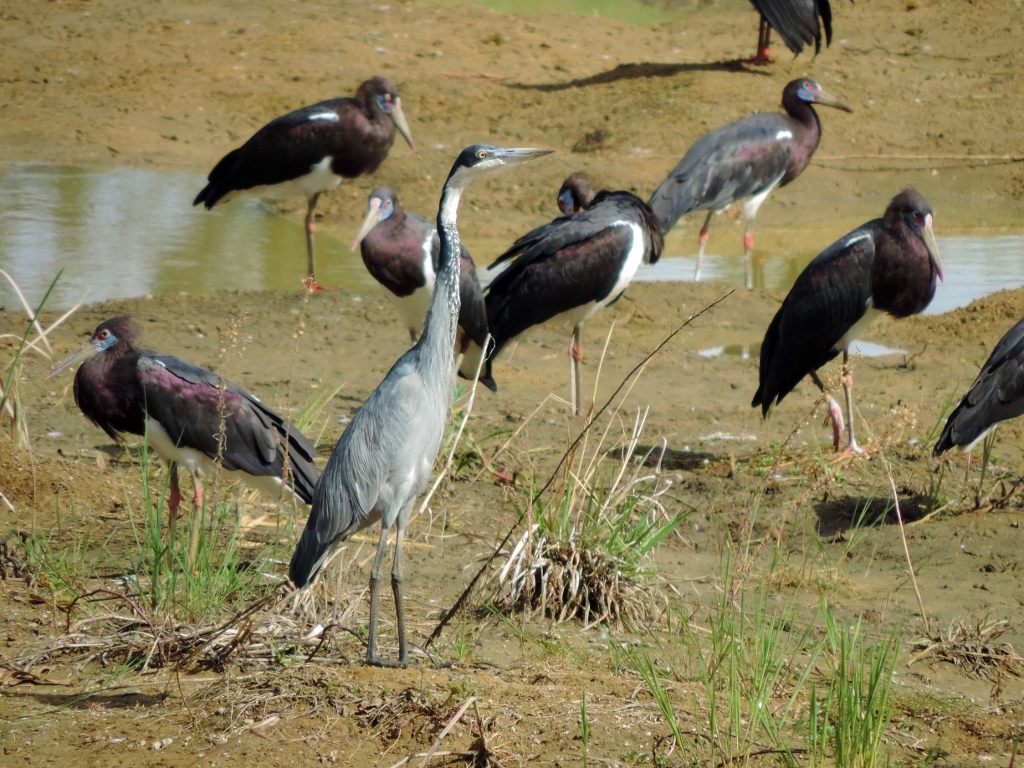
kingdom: Animalia
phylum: Chordata
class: Aves
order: Pelecaniformes
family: Ardeidae
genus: Ardea
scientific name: Ardea melanocephala
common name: Black-headed heron
